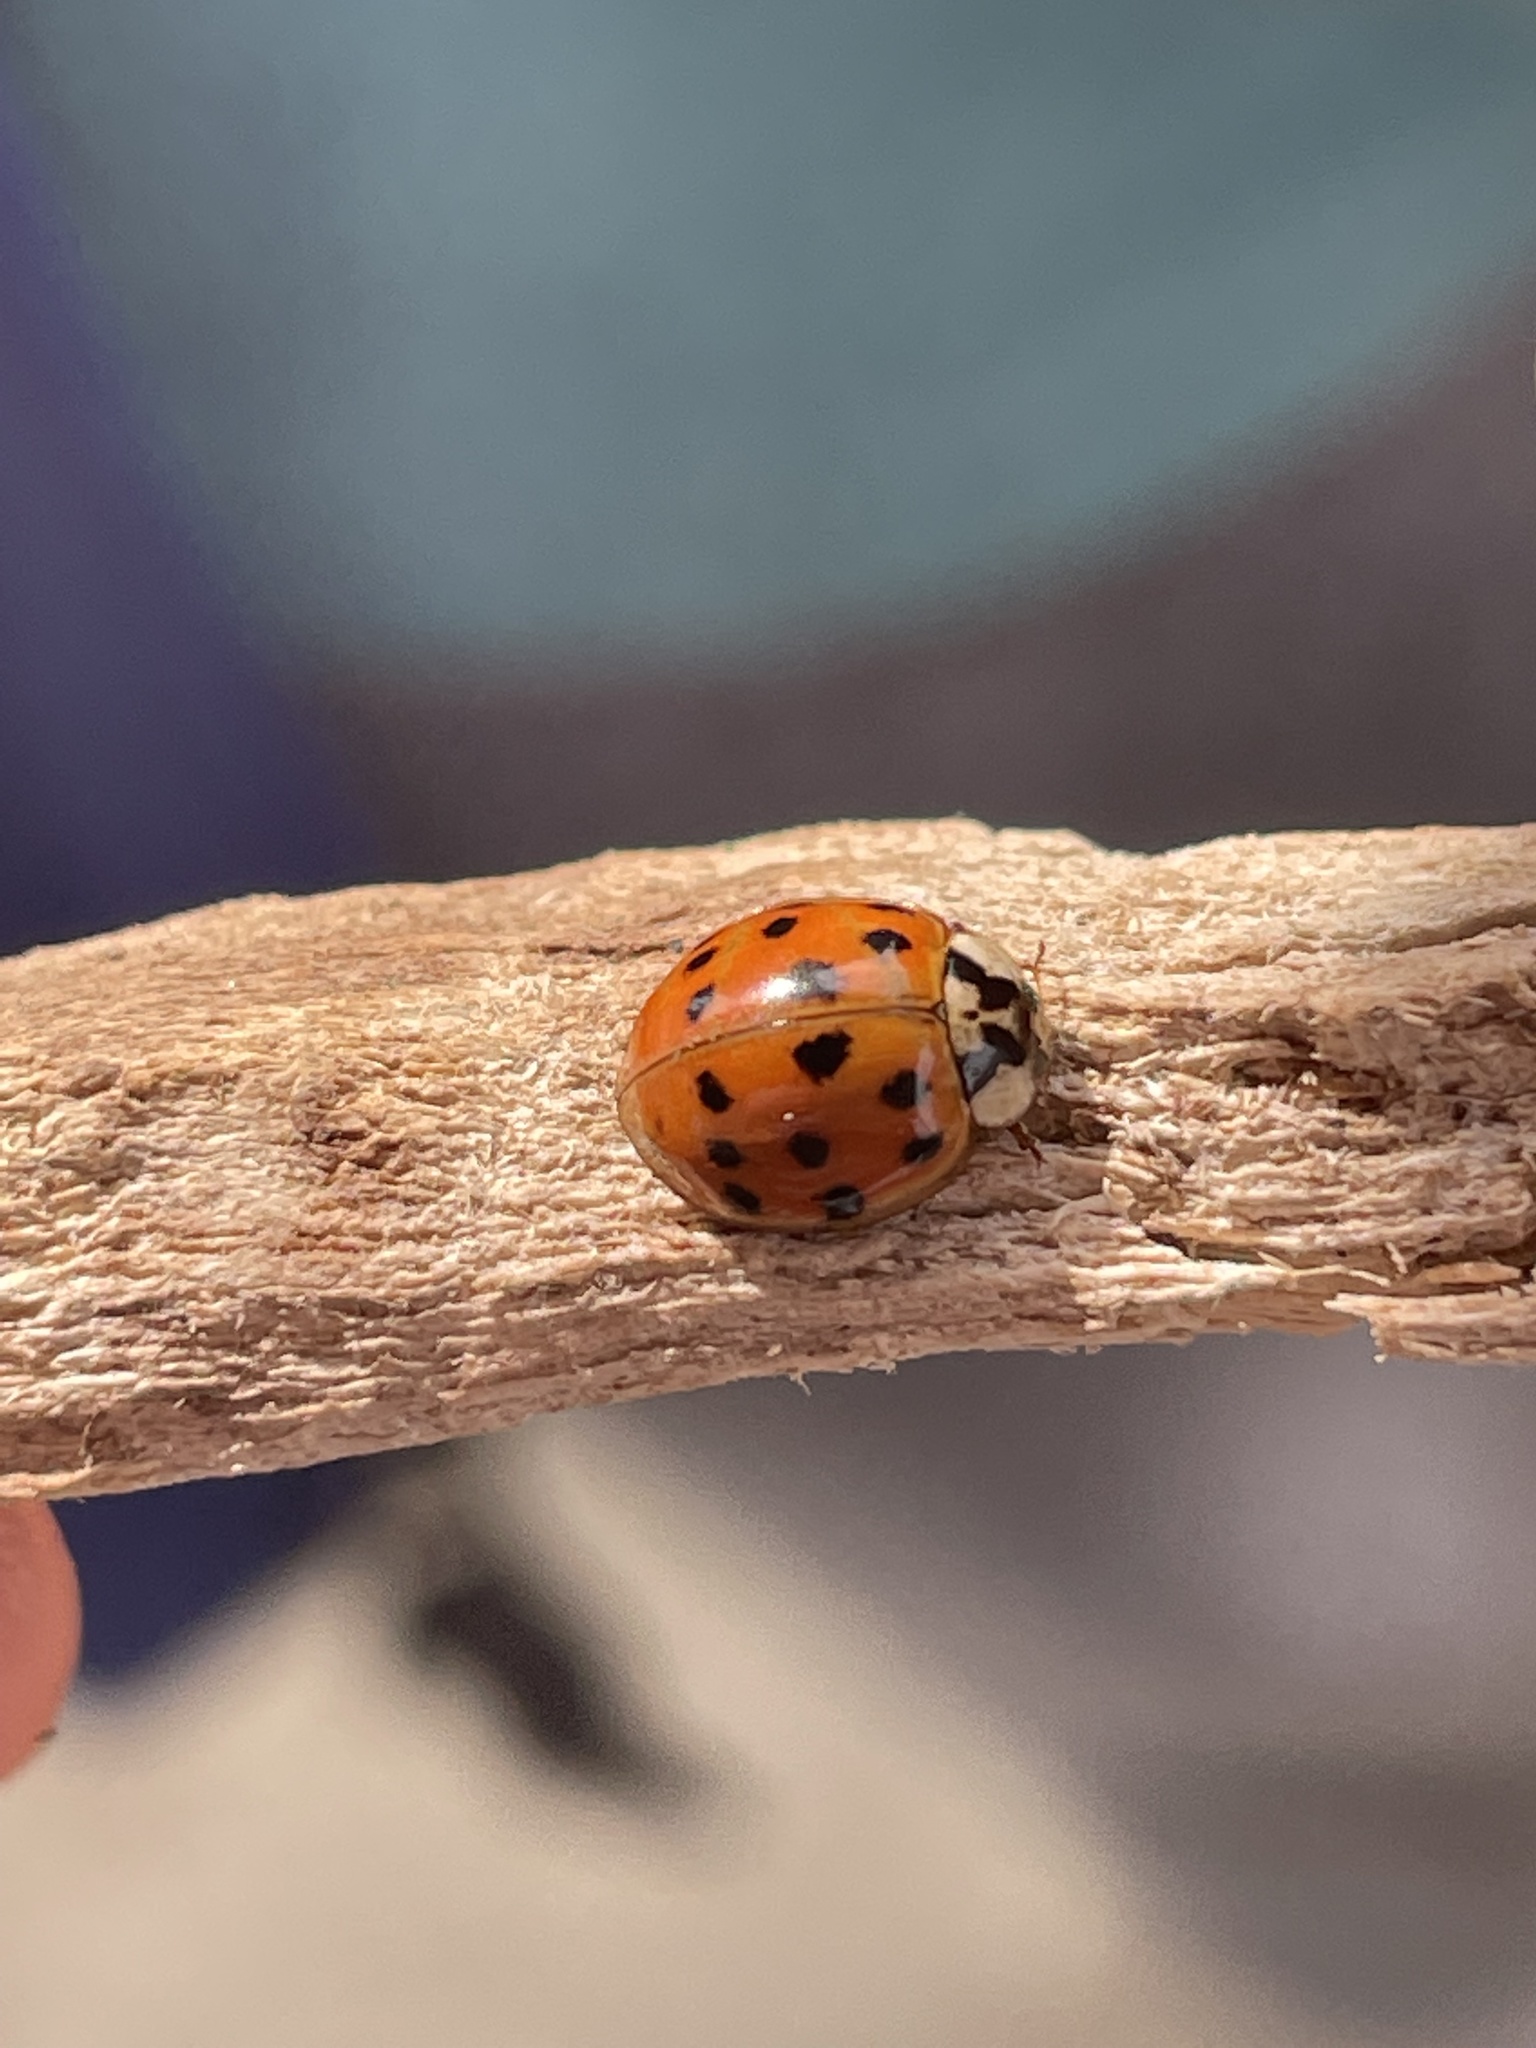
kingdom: Animalia
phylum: Arthropoda
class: Insecta
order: Coleoptera
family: Coccinellidae
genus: Harmonia
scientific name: Harmonia axyridis
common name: Harlequin ladybird
